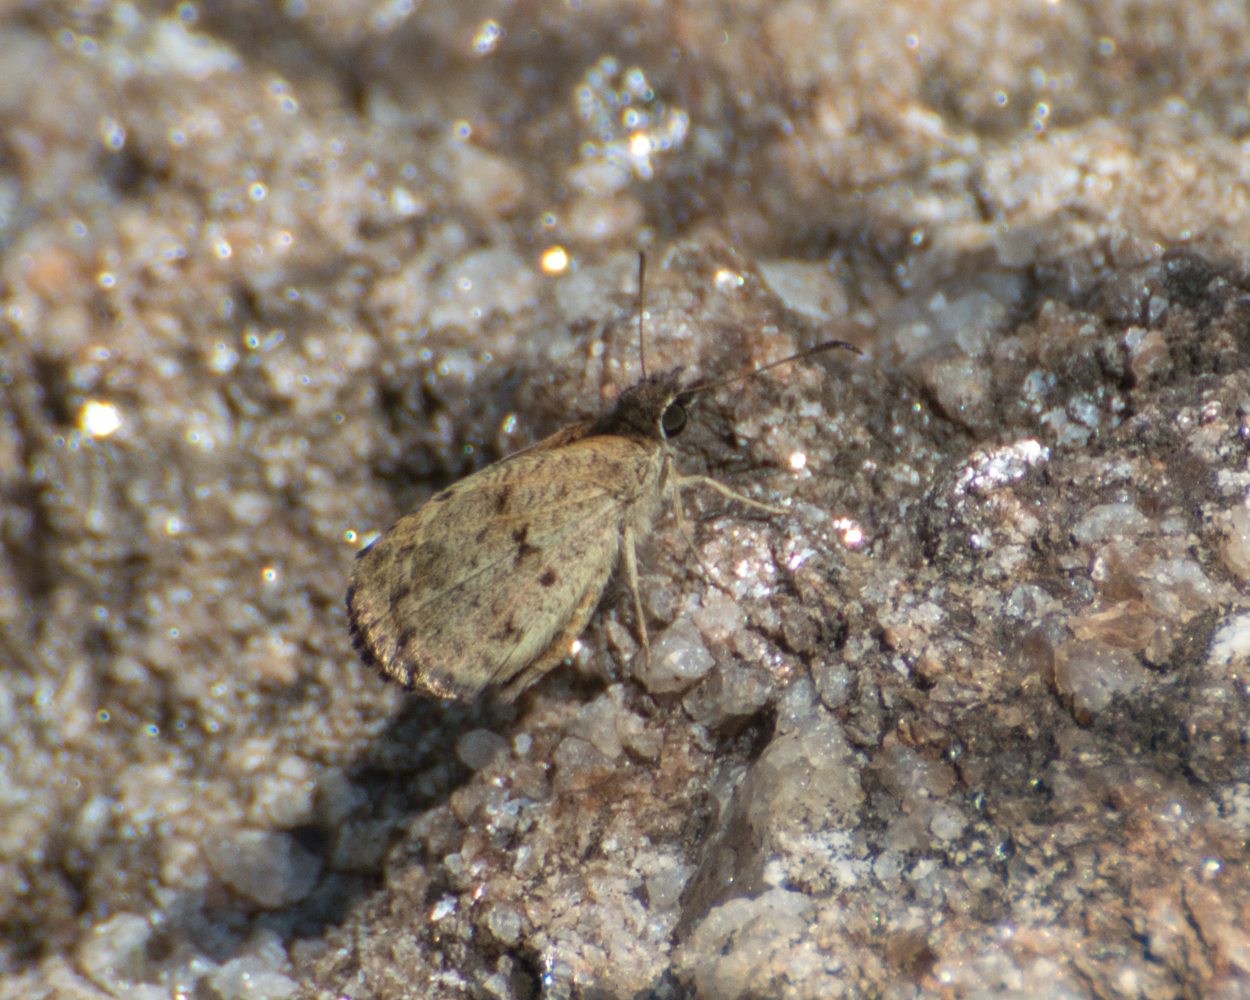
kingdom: Animalia
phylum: Arthropoda
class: Insecta
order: Lepidoptera
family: Hesperiidae
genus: Zopyrion
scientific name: Zopyrion evenor
